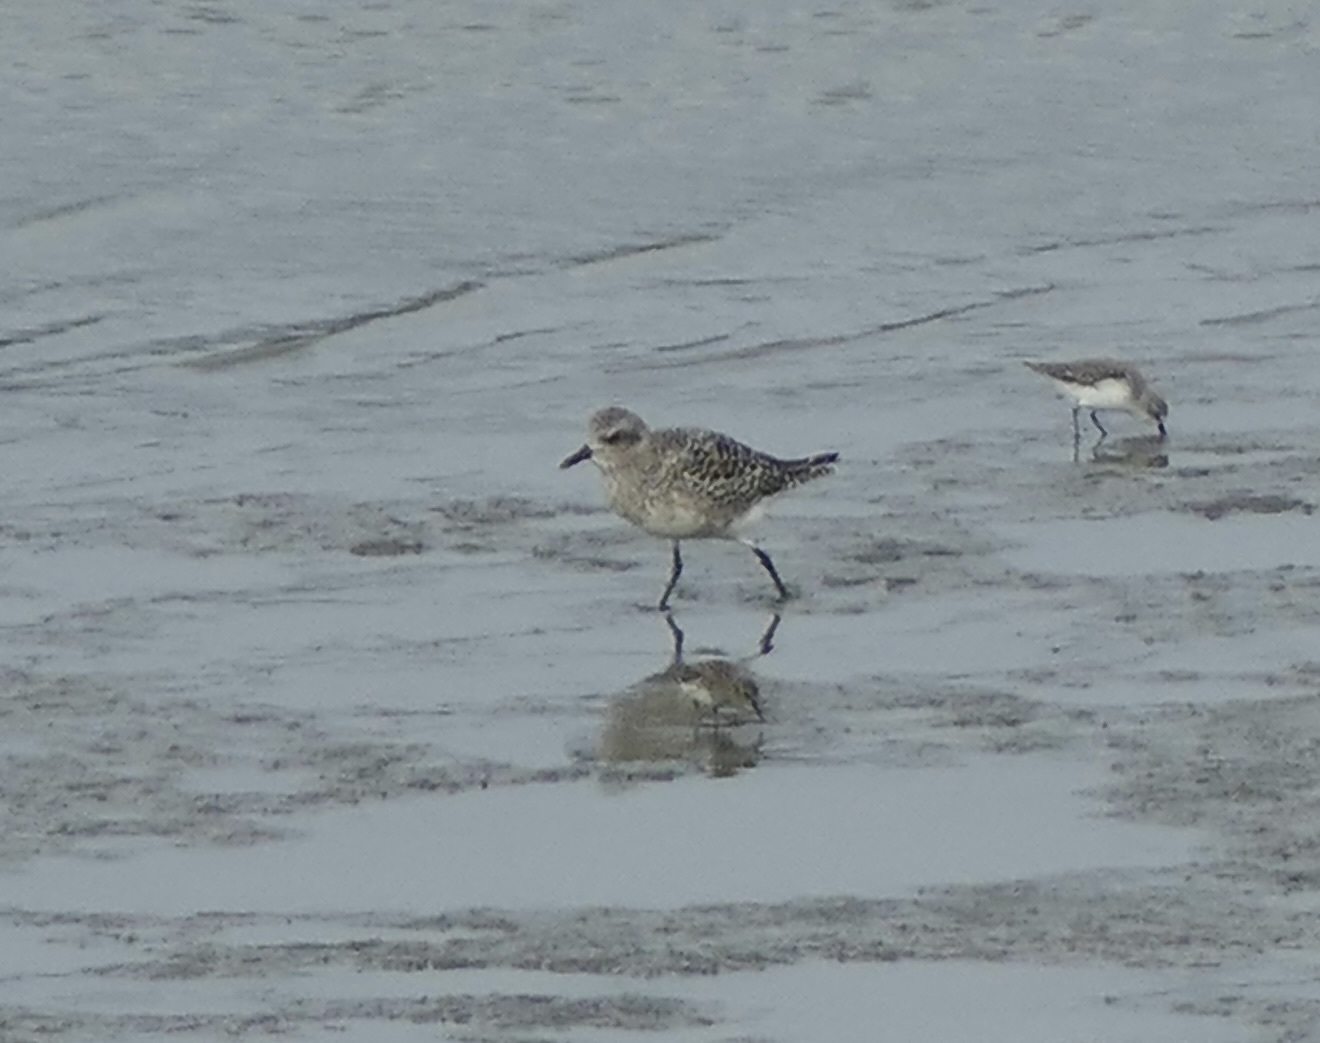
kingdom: Animalia
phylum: Chordata
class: Aves
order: Charadriiformes
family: Charadriidae
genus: Pluvialis
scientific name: Pluvialis squatarola
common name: Grey plover
